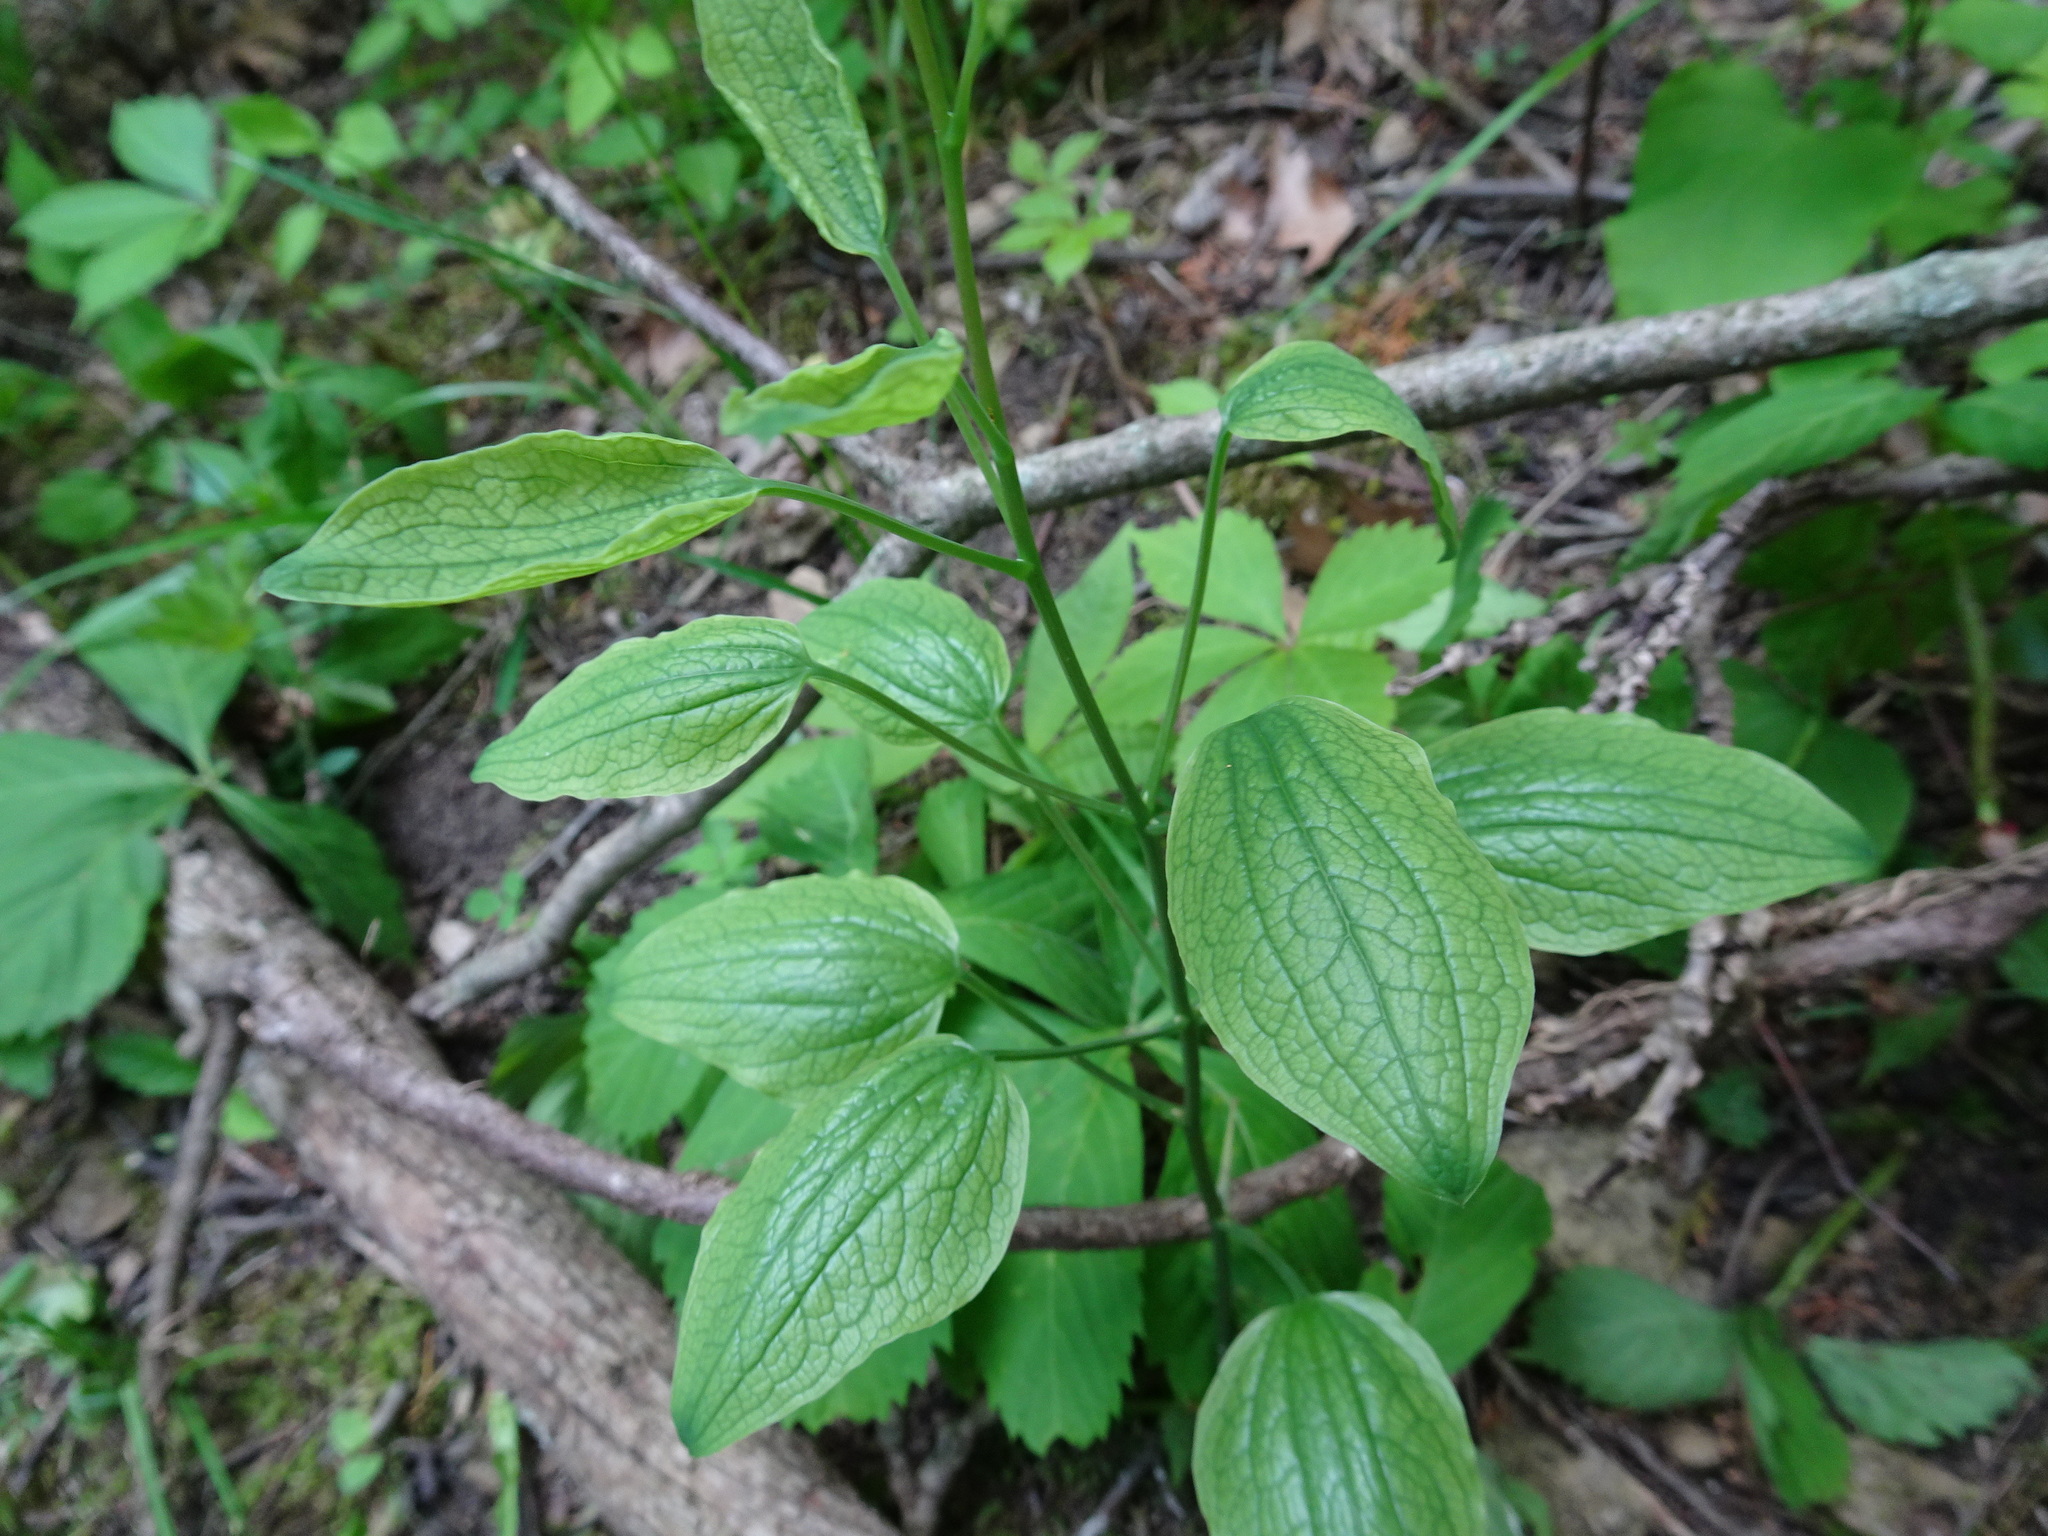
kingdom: Plantae
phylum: Tracheophyta
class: Liliopsida
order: Liliales
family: Smilacaceae
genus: Smilax
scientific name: Smilax lasioneura
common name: Blue ridge carrionflower
